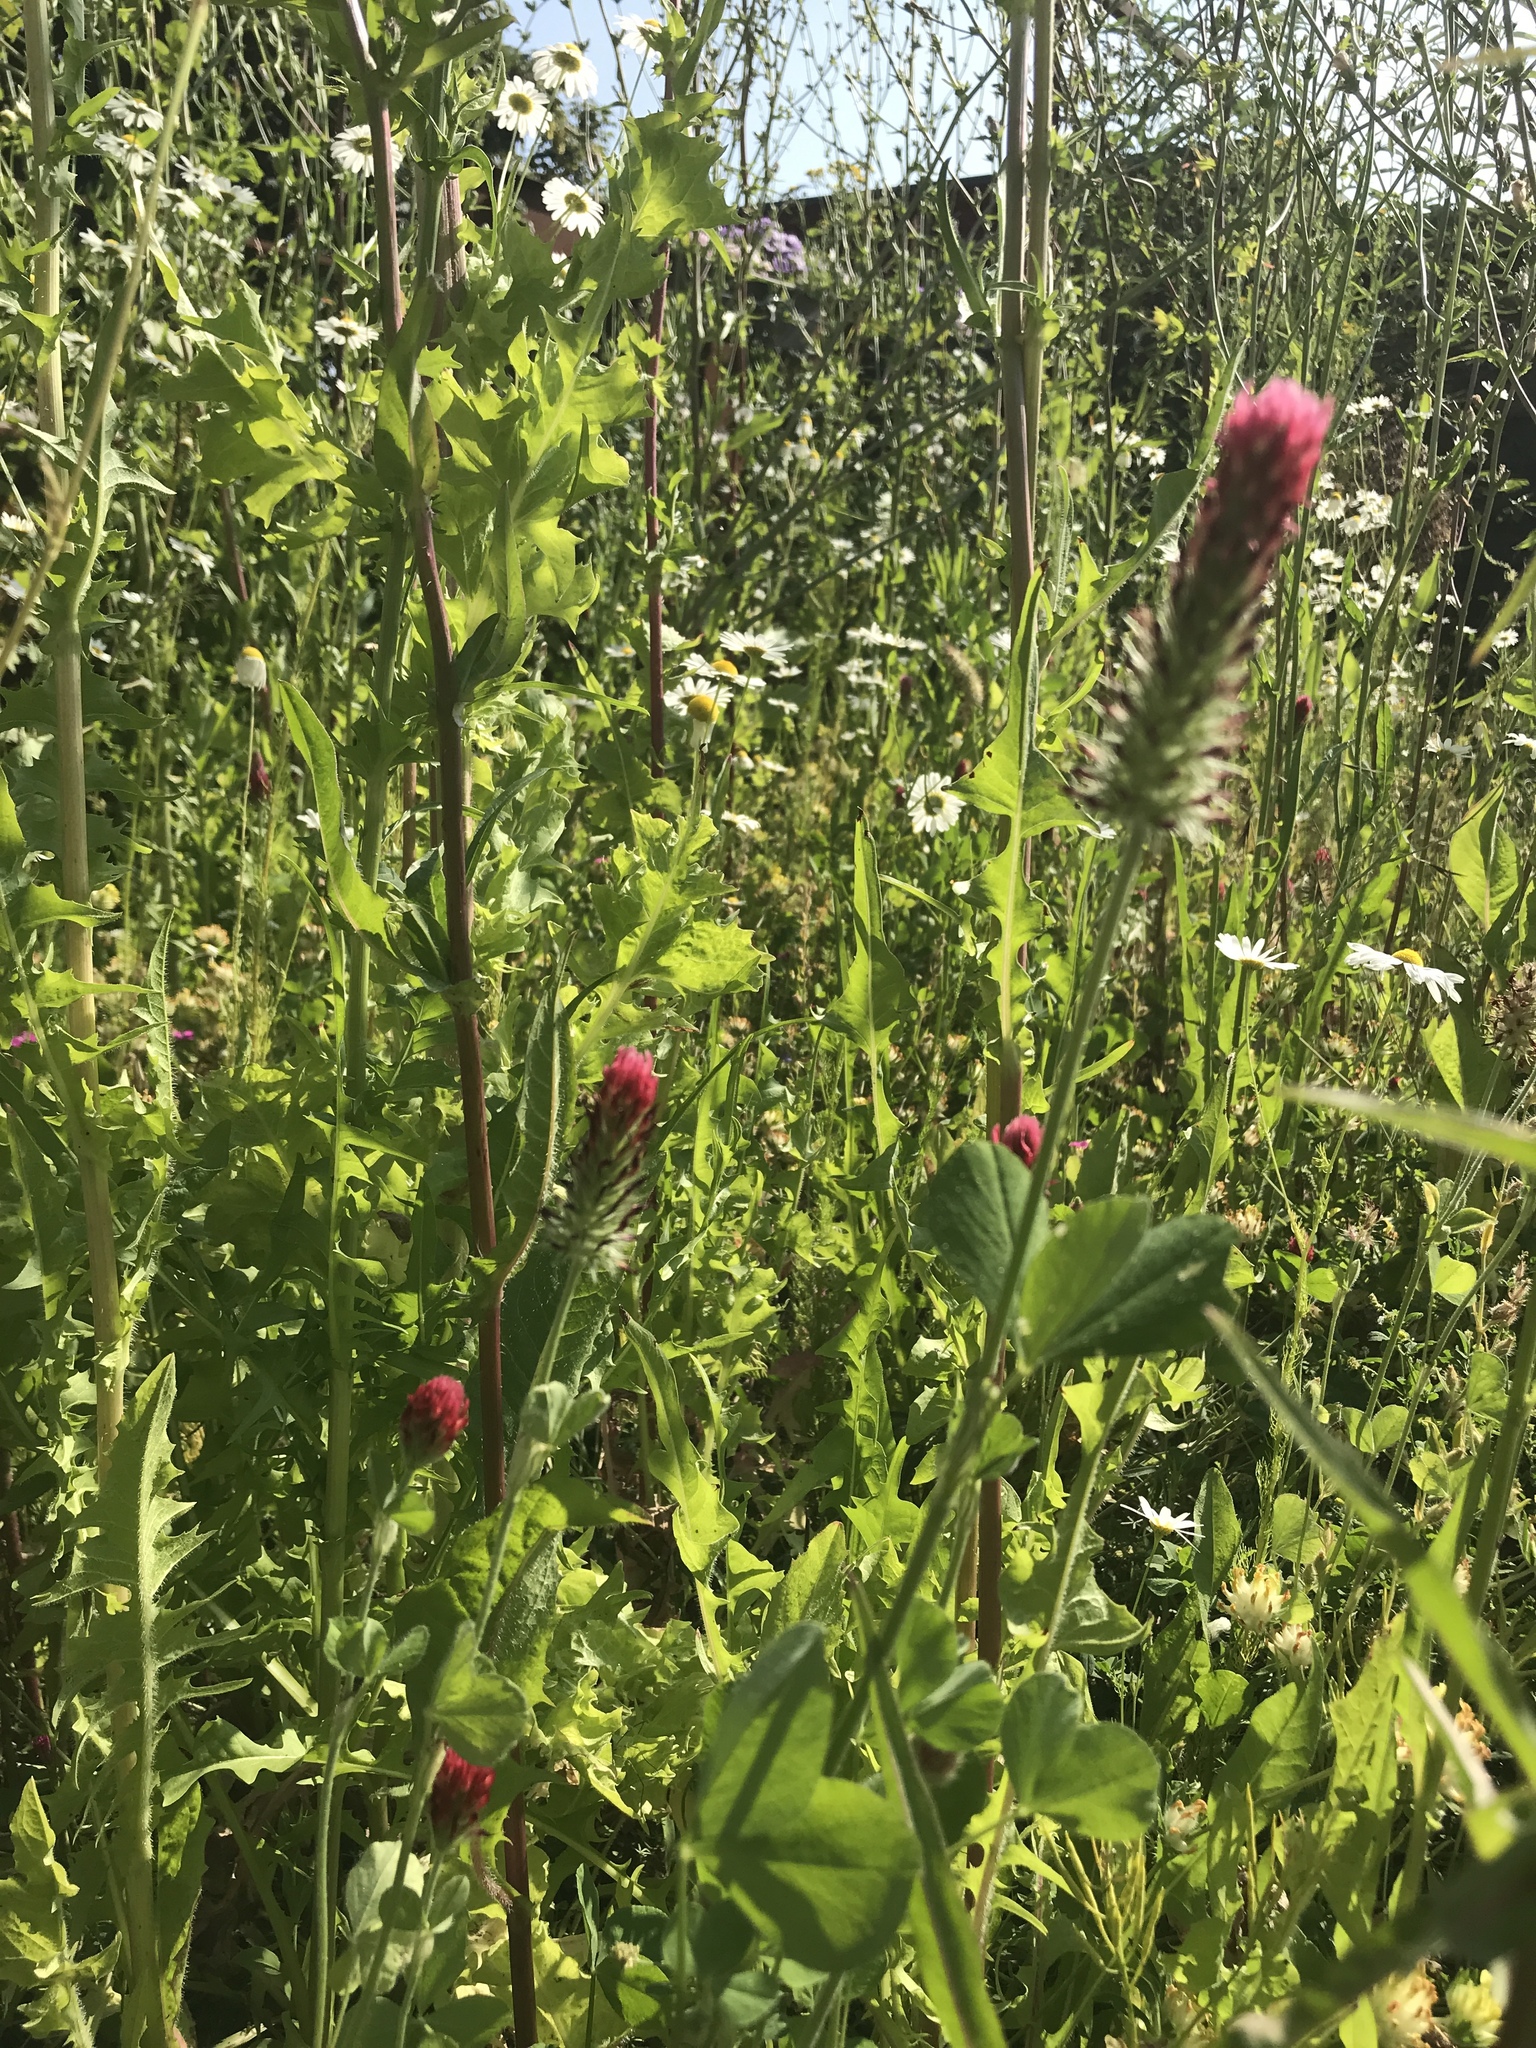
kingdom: Plantae
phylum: Tracheophyta
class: Magnoliopsida
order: Fabales
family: Fabaceae
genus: Trifolium
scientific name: Trifolium incarnatum
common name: Crimson clover
